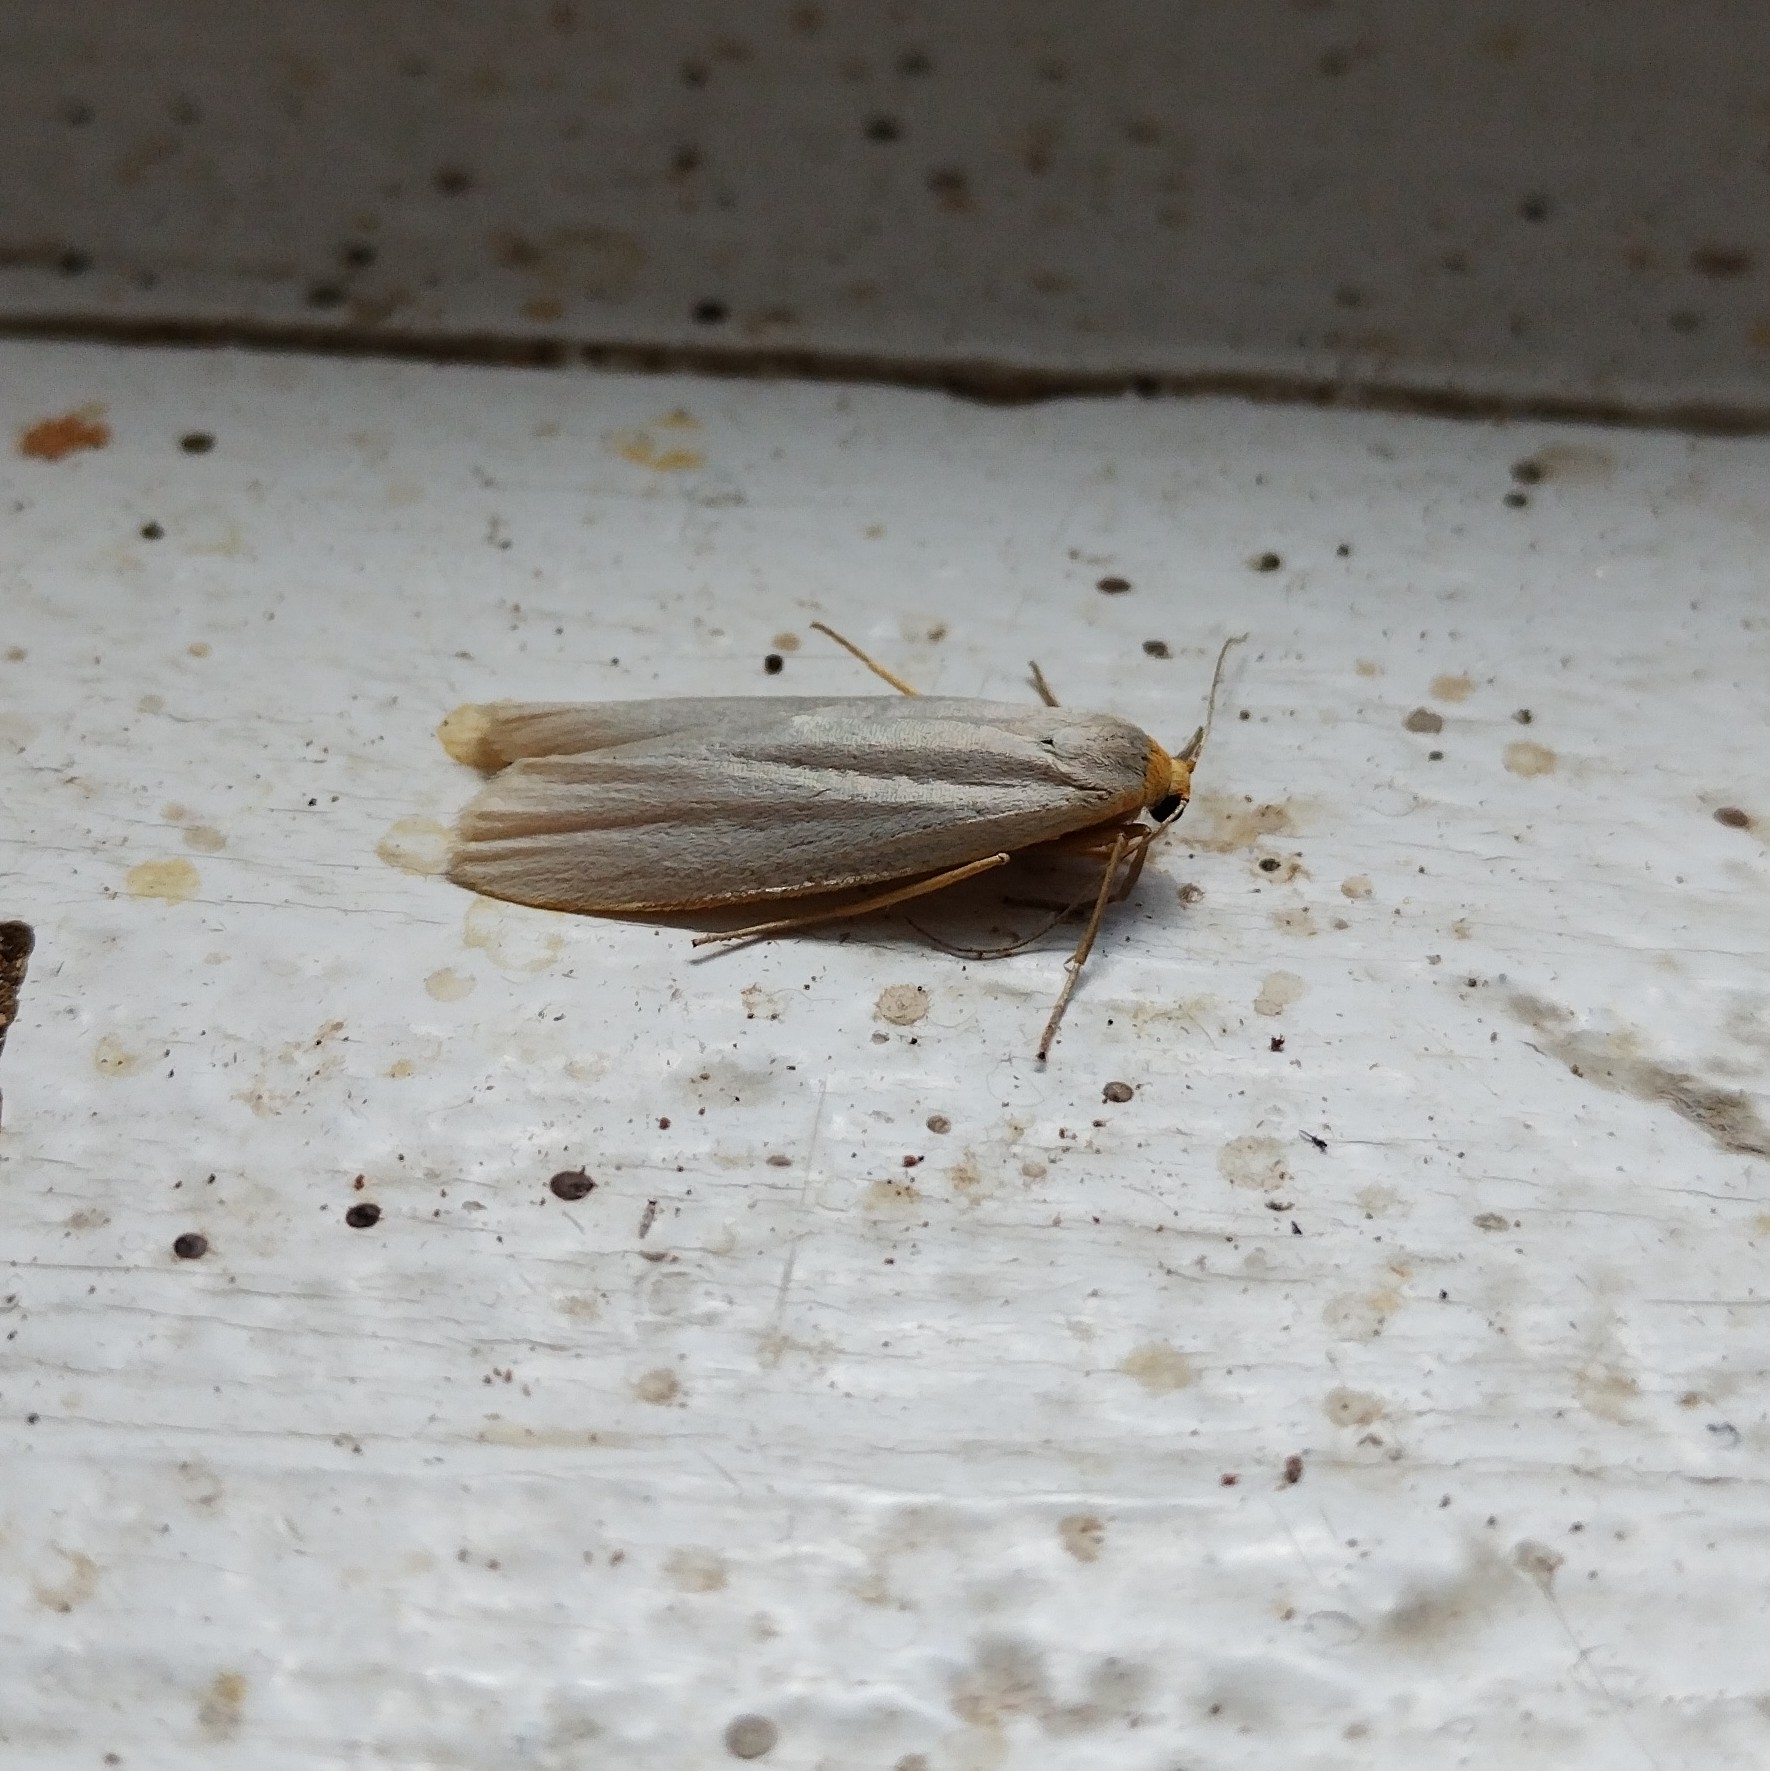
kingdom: Animalia
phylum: Arthropoda
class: Insecta
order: Lepidoptera
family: Erebidae
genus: Eilema
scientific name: Eilema caniola
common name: Hoary footman
